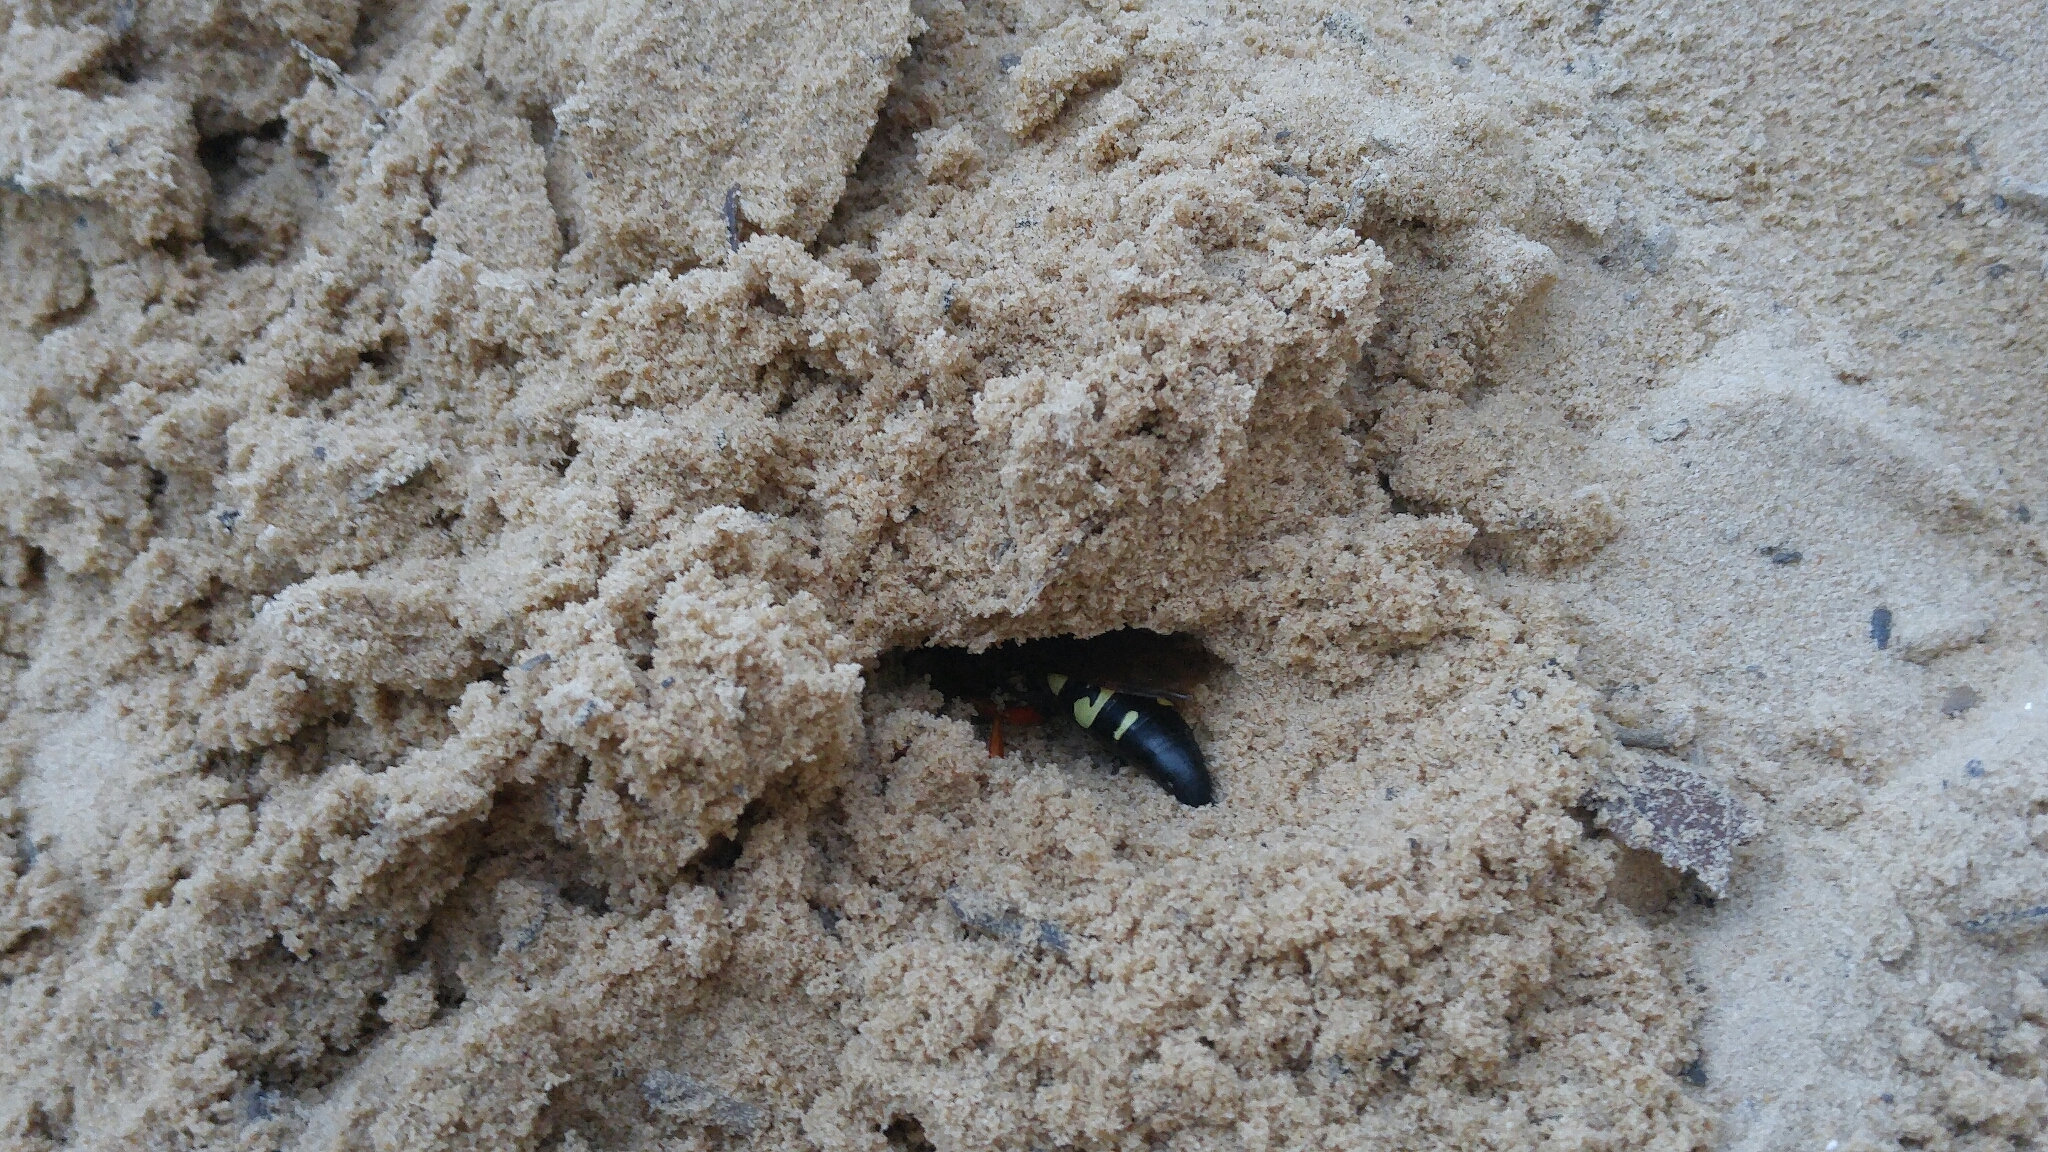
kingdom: Animalia
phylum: Arthropoda
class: Insecta
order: Hymenoptera
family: Crabronidae
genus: Sphecius
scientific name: Sphecius speciosus
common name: Cicada killer
